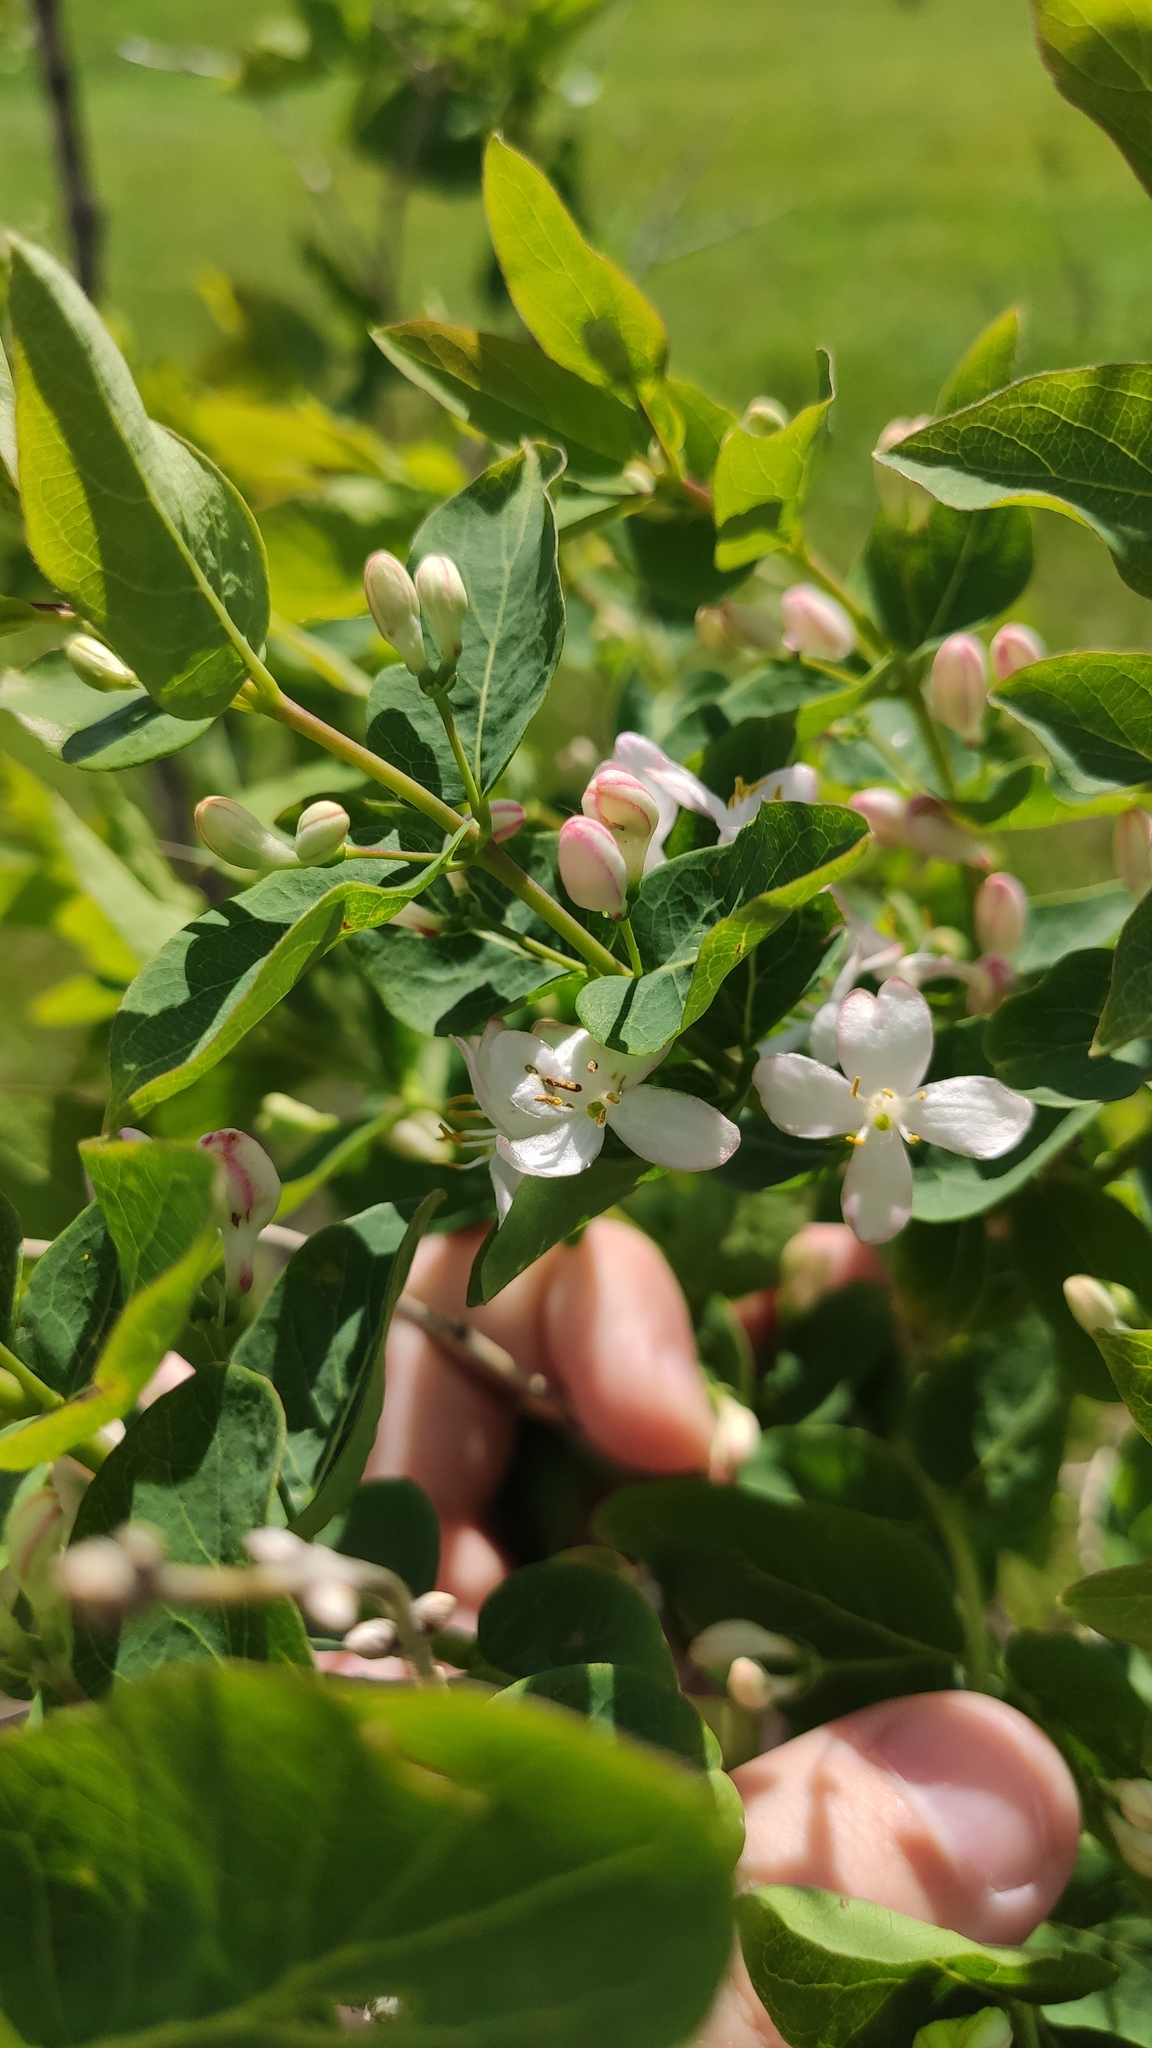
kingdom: Plantae
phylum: Tracheophyta
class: Magnoliopsida
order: Dipsacales
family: Caprifoliaceae
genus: Lonicera
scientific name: Lonicera tatarica
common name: Tatarian honeysuckle
